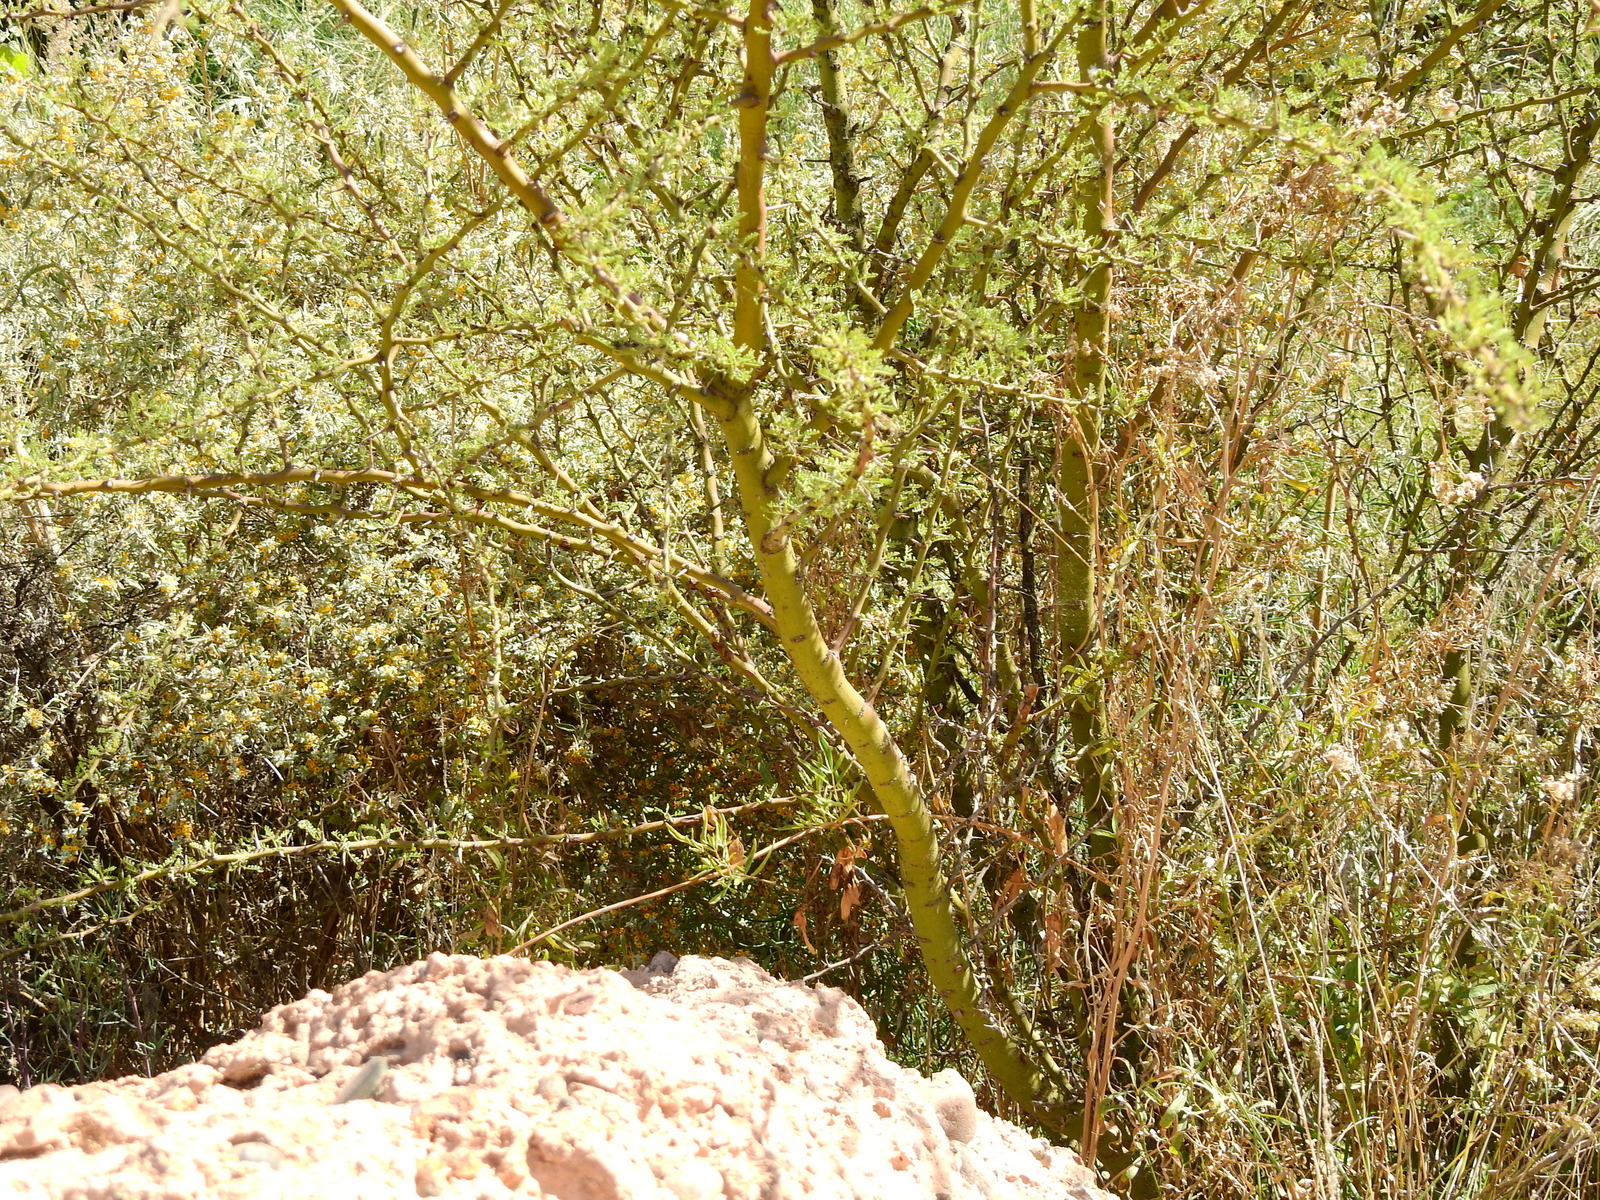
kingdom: Plantae
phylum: Tracheophyta
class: Magnoliopsida
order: Fabales
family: Fabaceae
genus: Parkinsonia
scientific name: Parkinsonia praecox
